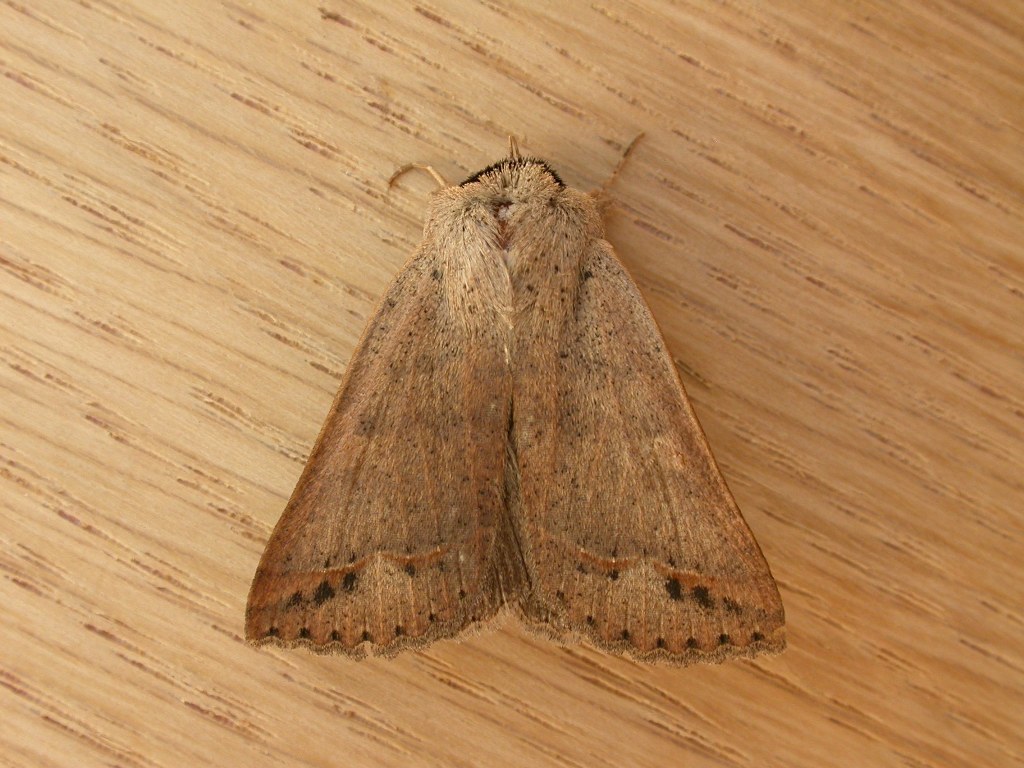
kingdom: Animalia
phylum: Arthropoda
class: Insecta
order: Lepidoptera
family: Erebidae
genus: Pantydia
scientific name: Pantydia sparsa
